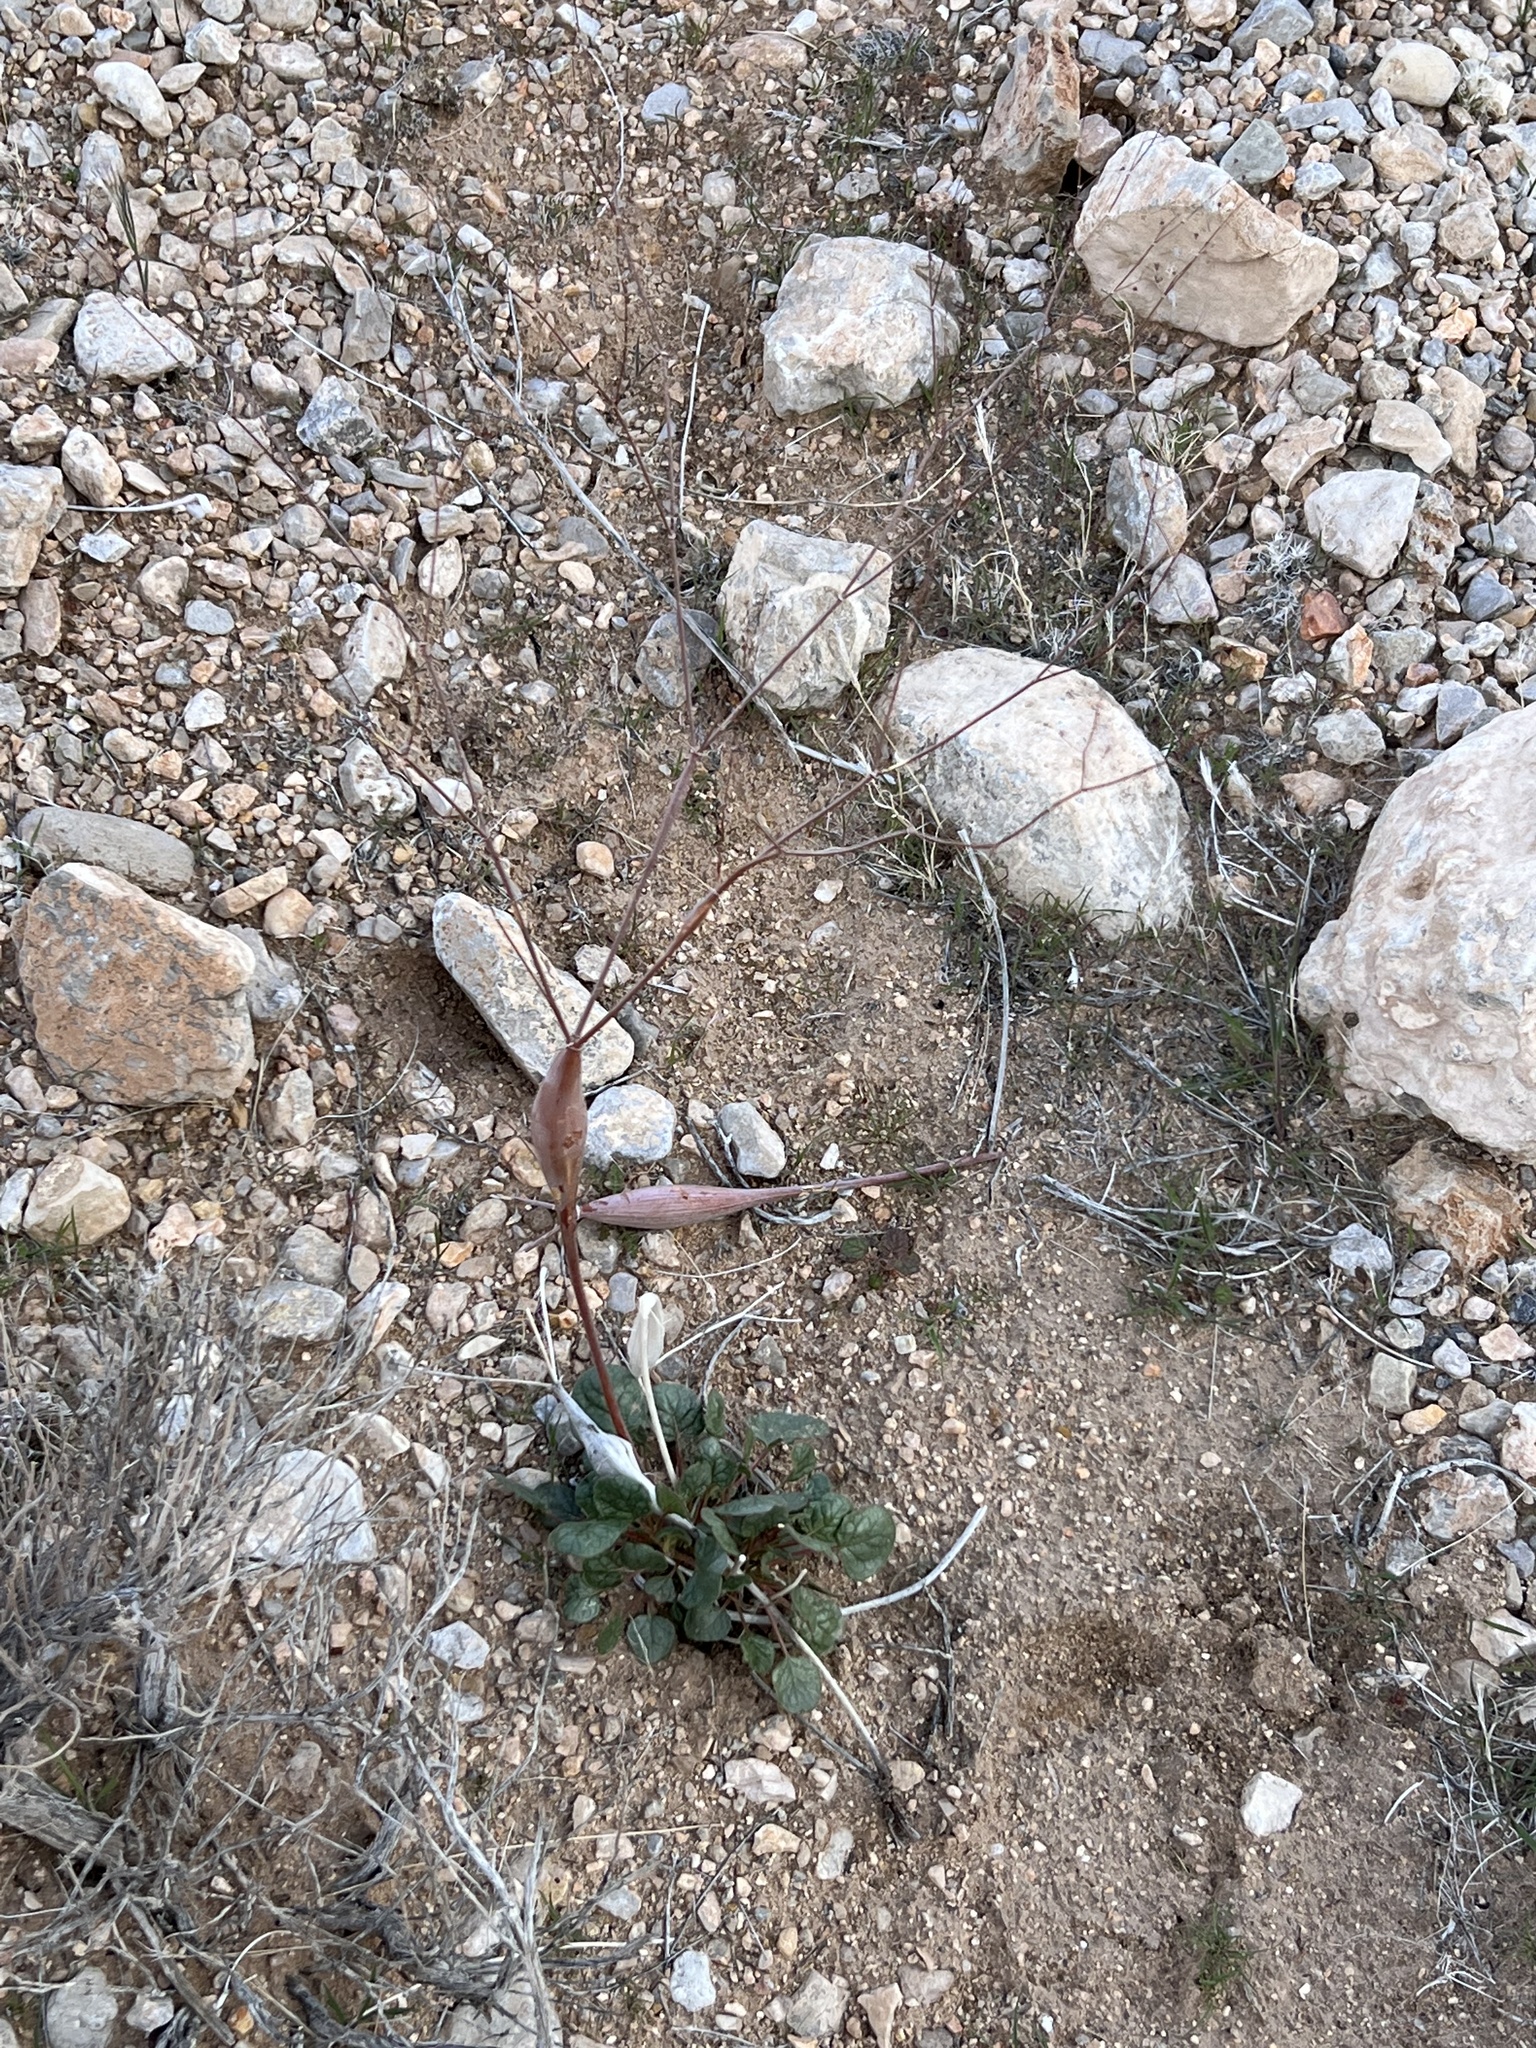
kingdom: Plantae
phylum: Tracheophyta
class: Magnoliopsida
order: Caryophyllales
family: Polygonaceae
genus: Eriogonum
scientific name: Eriogonum inflatum
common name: Desert trumpet
